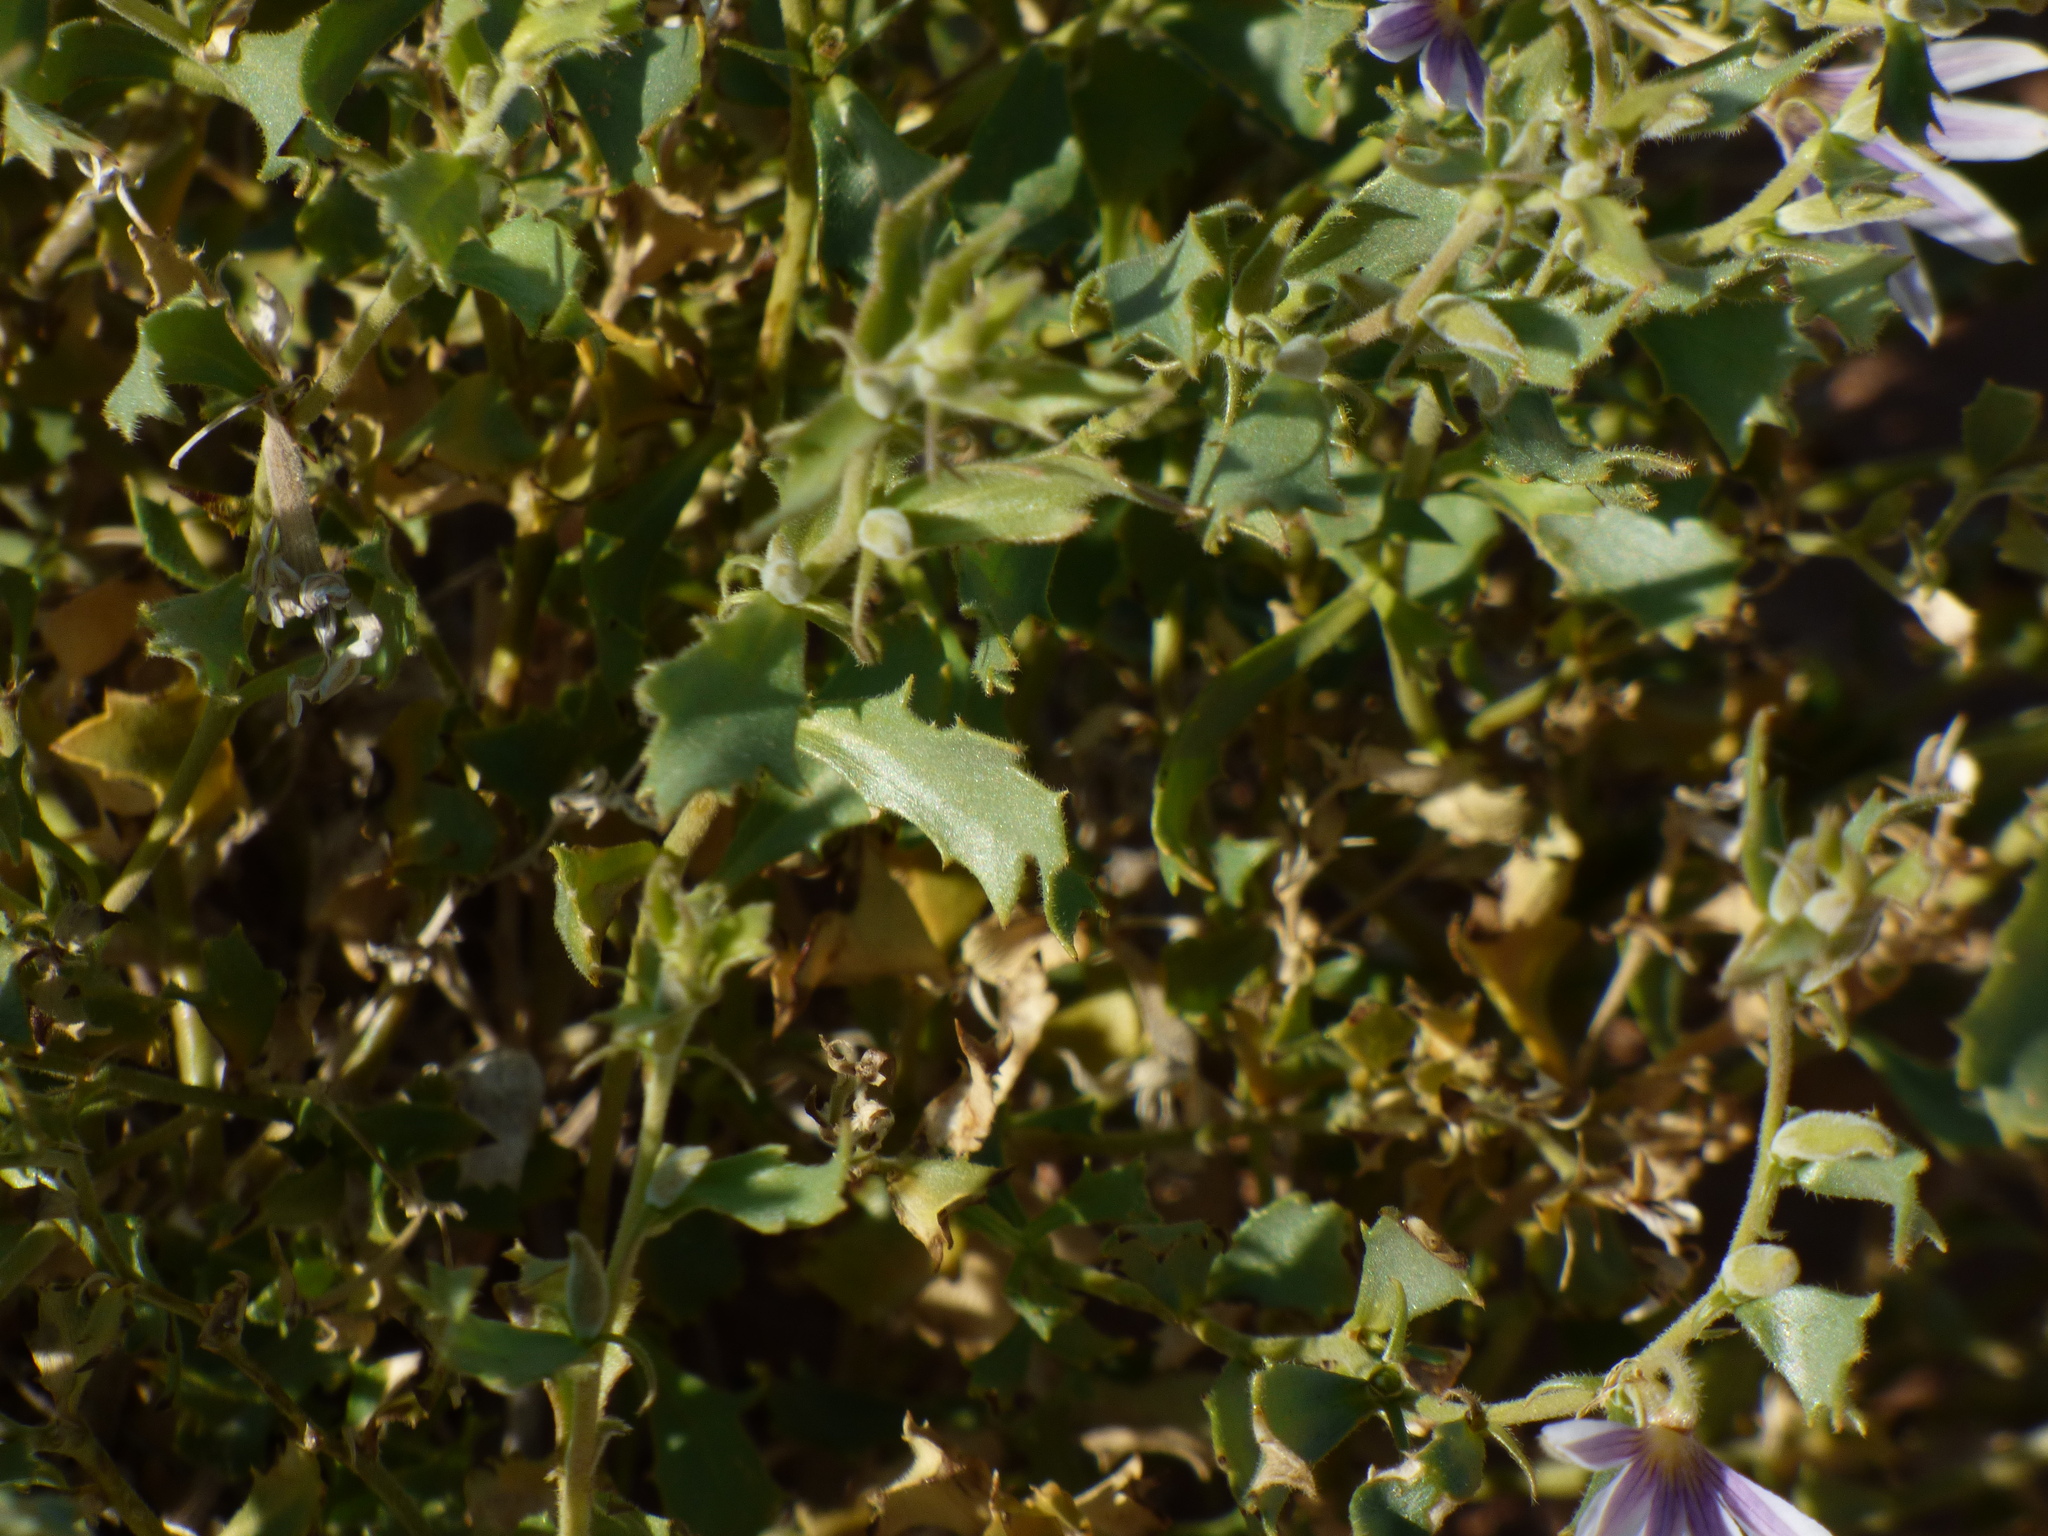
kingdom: Plantae
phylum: Tracheophyta
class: Magnoliopsida
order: Asterales
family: Goodeniaceae
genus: Scaevola
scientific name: Scaevola parvibarbata
